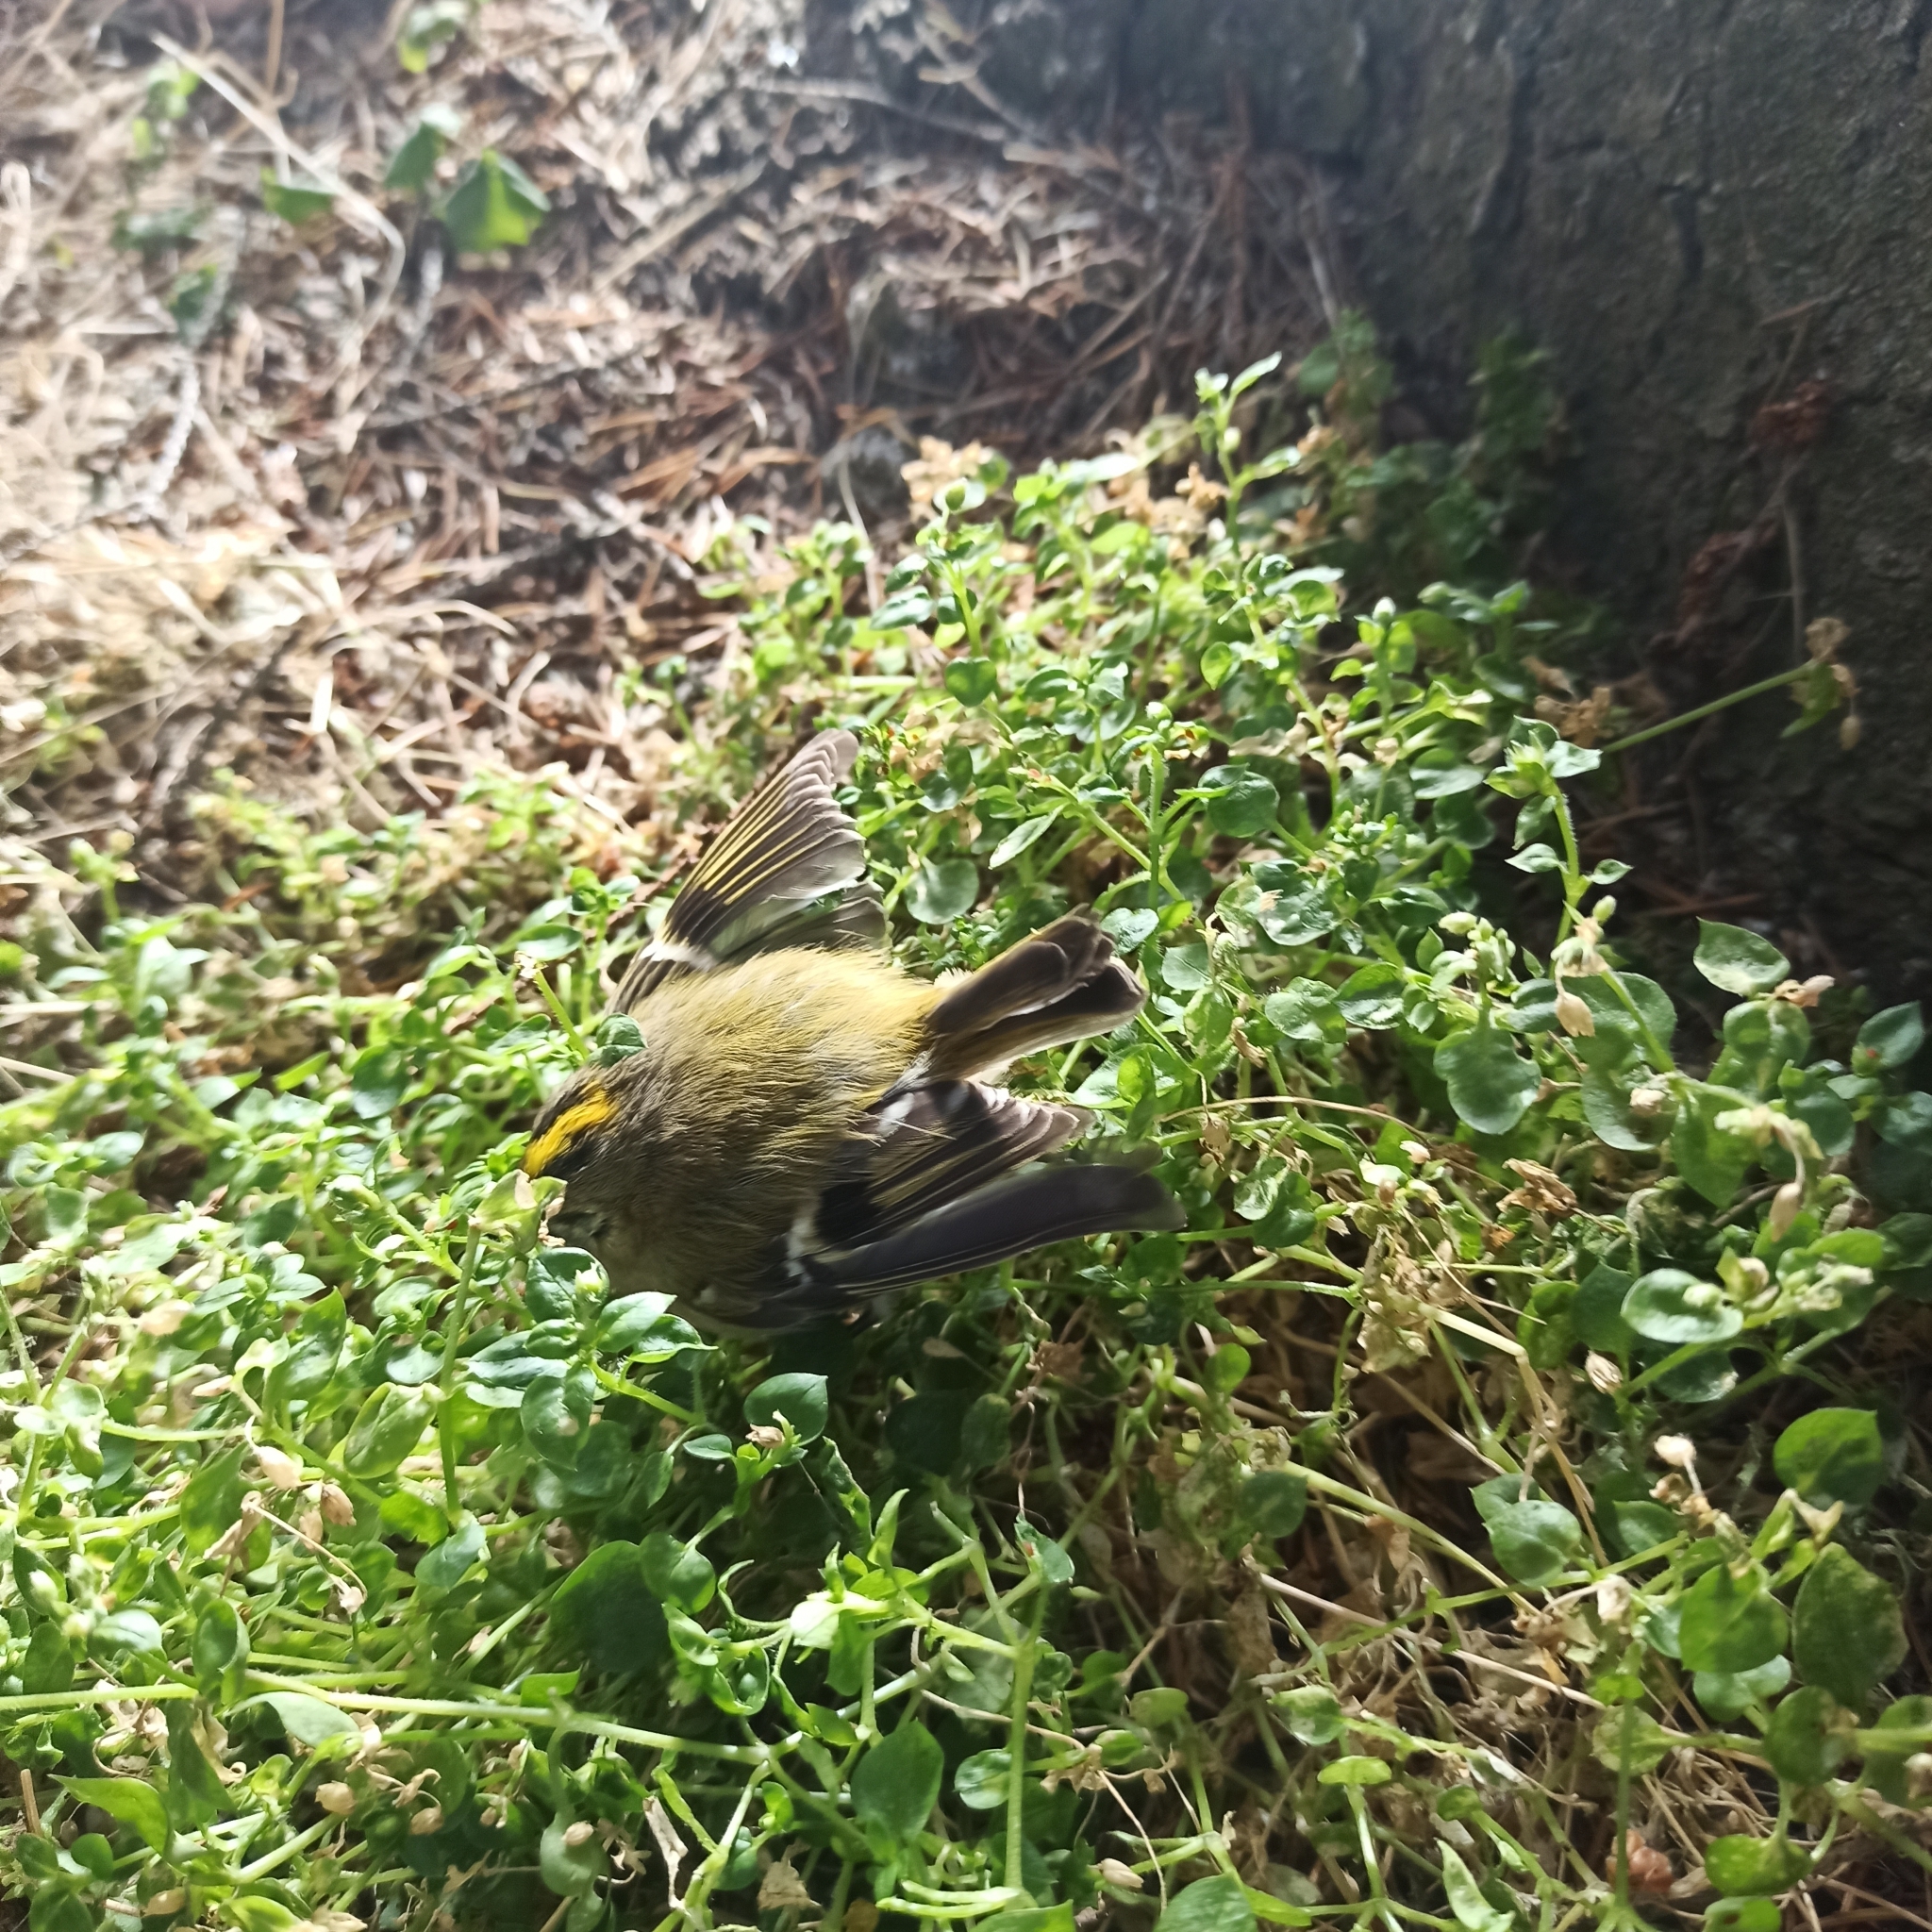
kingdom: Animalia
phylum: Chordata
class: Aves
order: Passeriformes
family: Regulidae
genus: Regulus
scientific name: Regulus regulus
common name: Goldcrest
